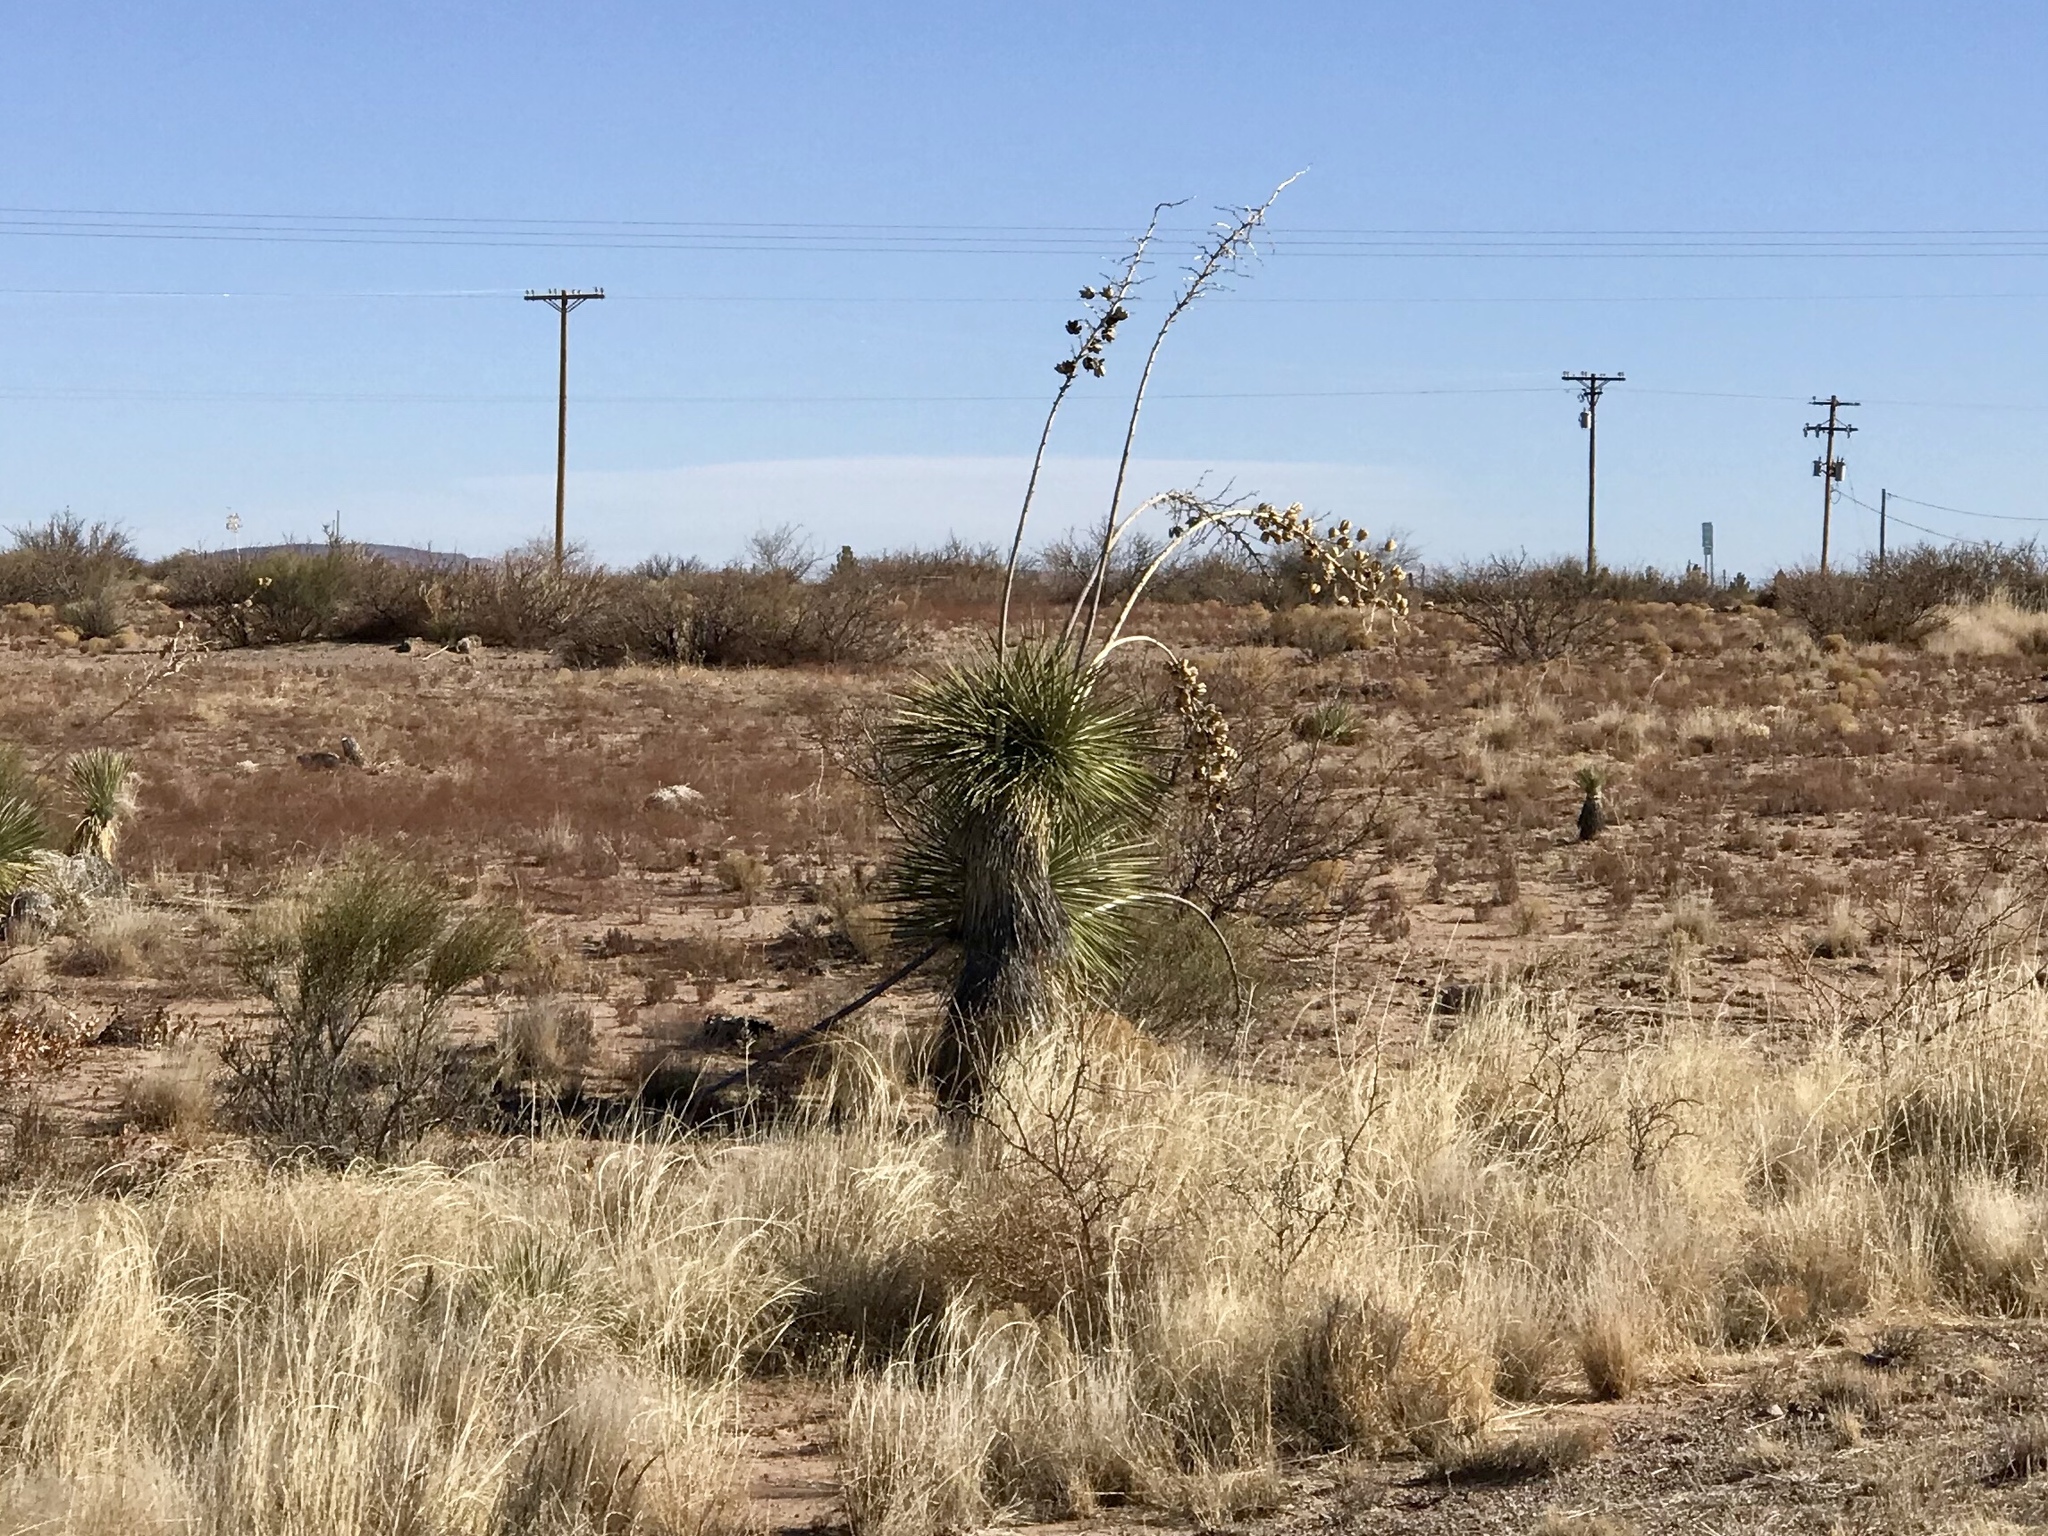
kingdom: Plantae
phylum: Tracheophyta
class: Liliopsida
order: Asparagales
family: Asparagaceae
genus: Yucca
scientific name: Yucca elata
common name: Palmella
